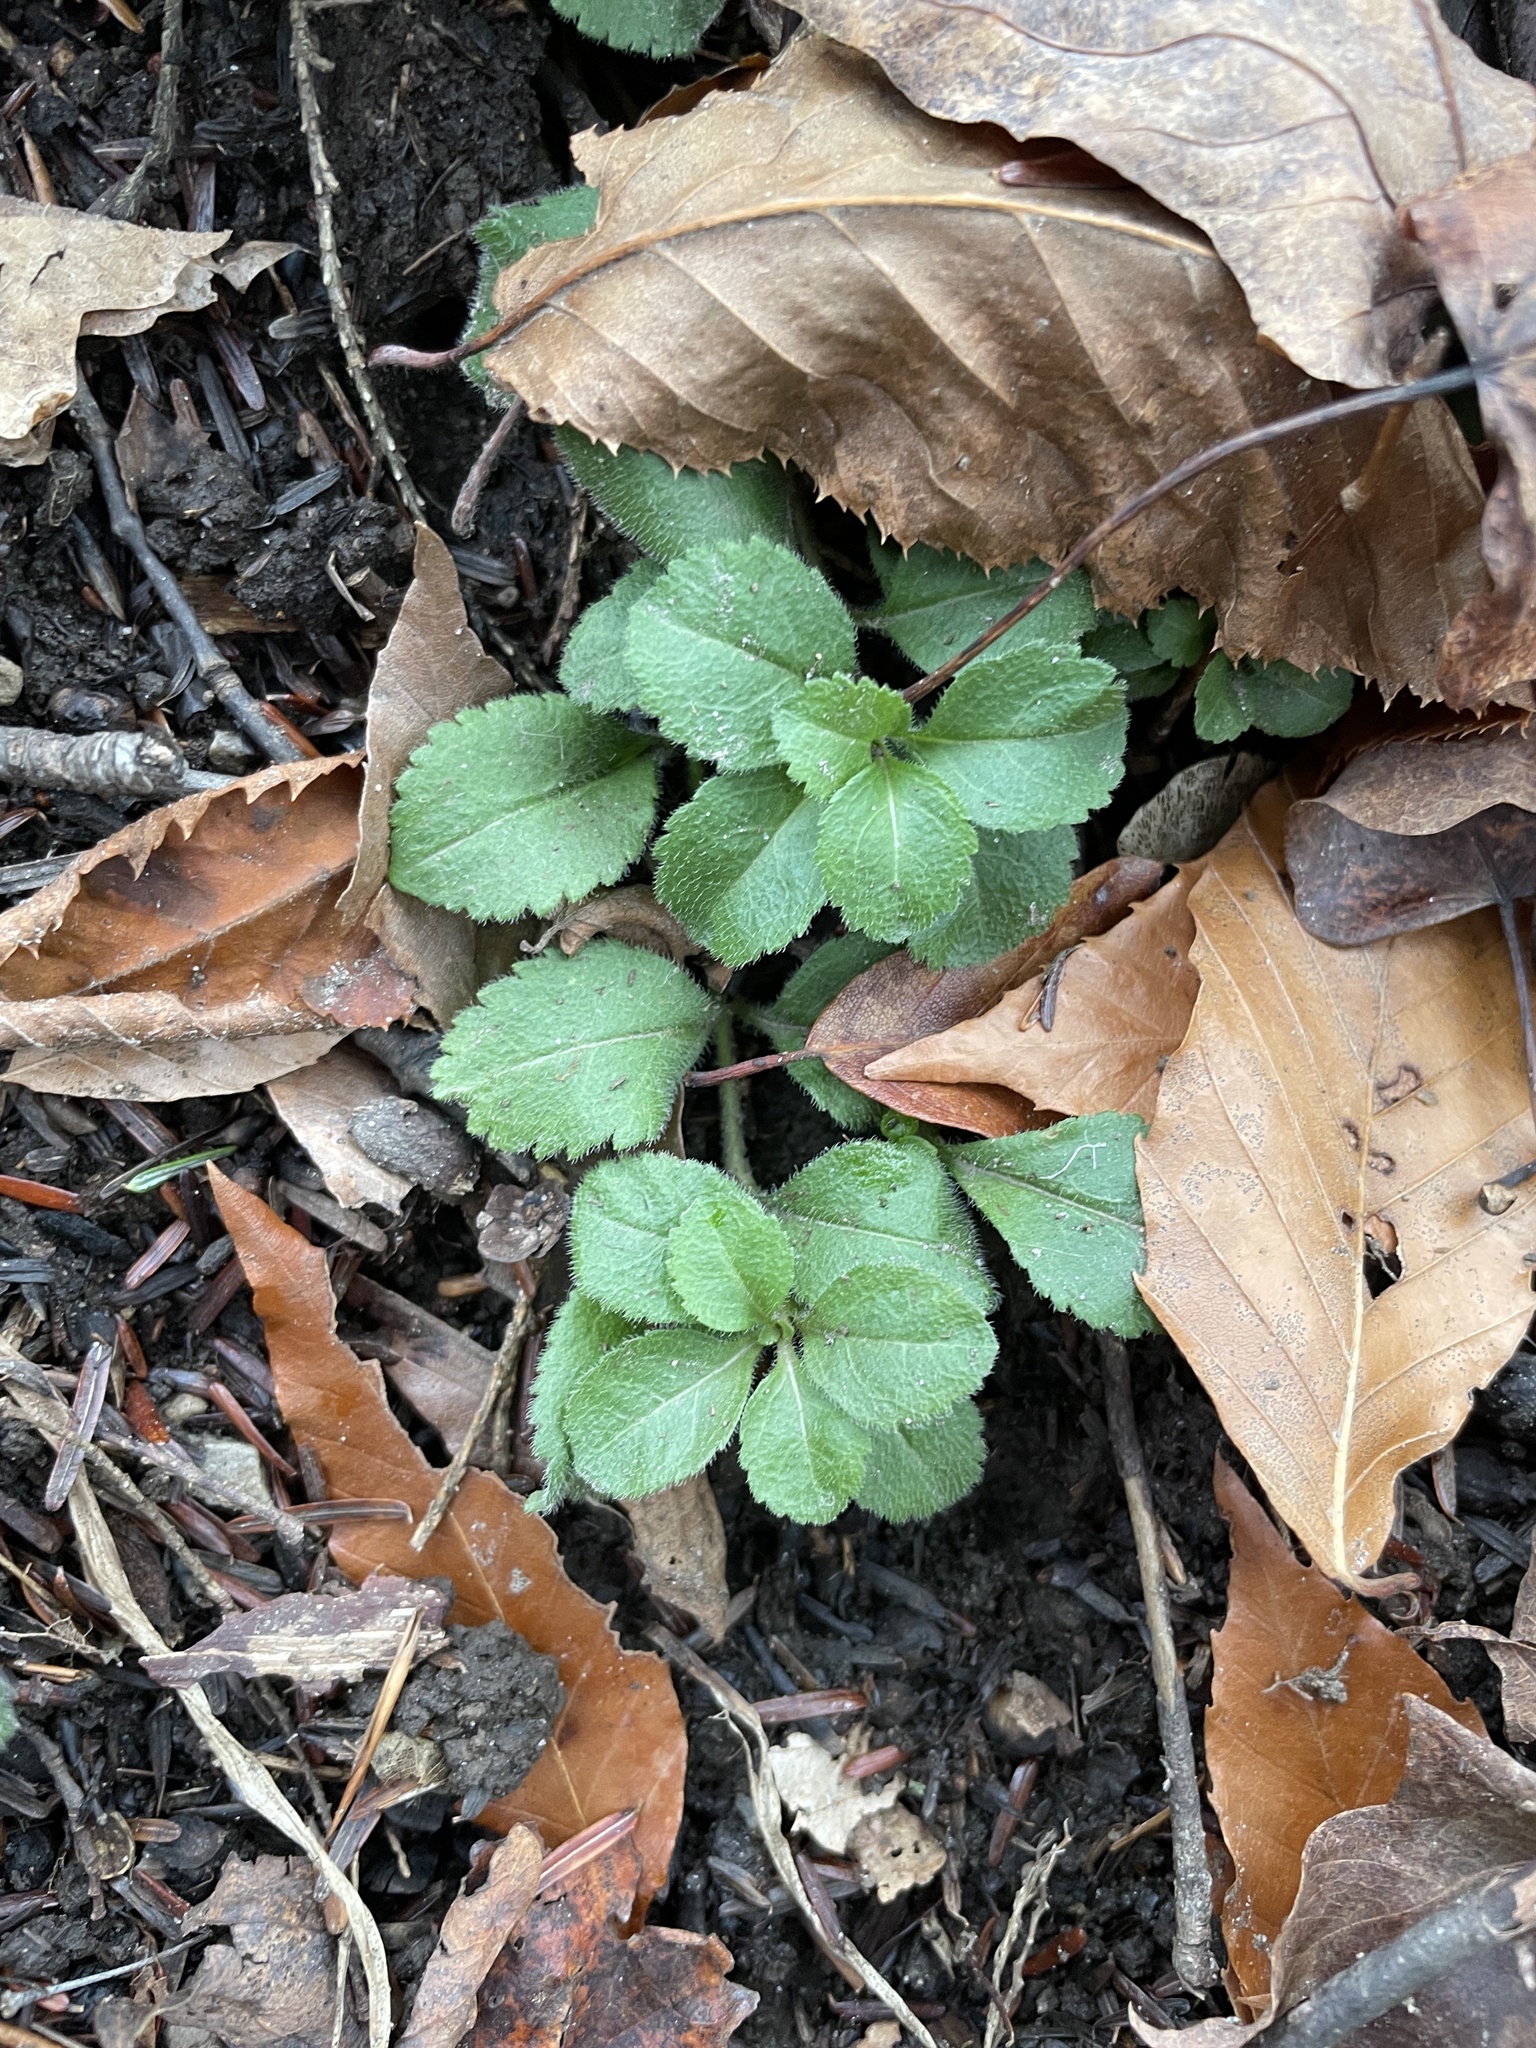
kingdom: Plantae
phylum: Tracheophyta
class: Magnoliopsida
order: Lamiales
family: Plantaginaceae
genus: Veronica
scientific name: Veronica officinalis
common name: Common speedwell
